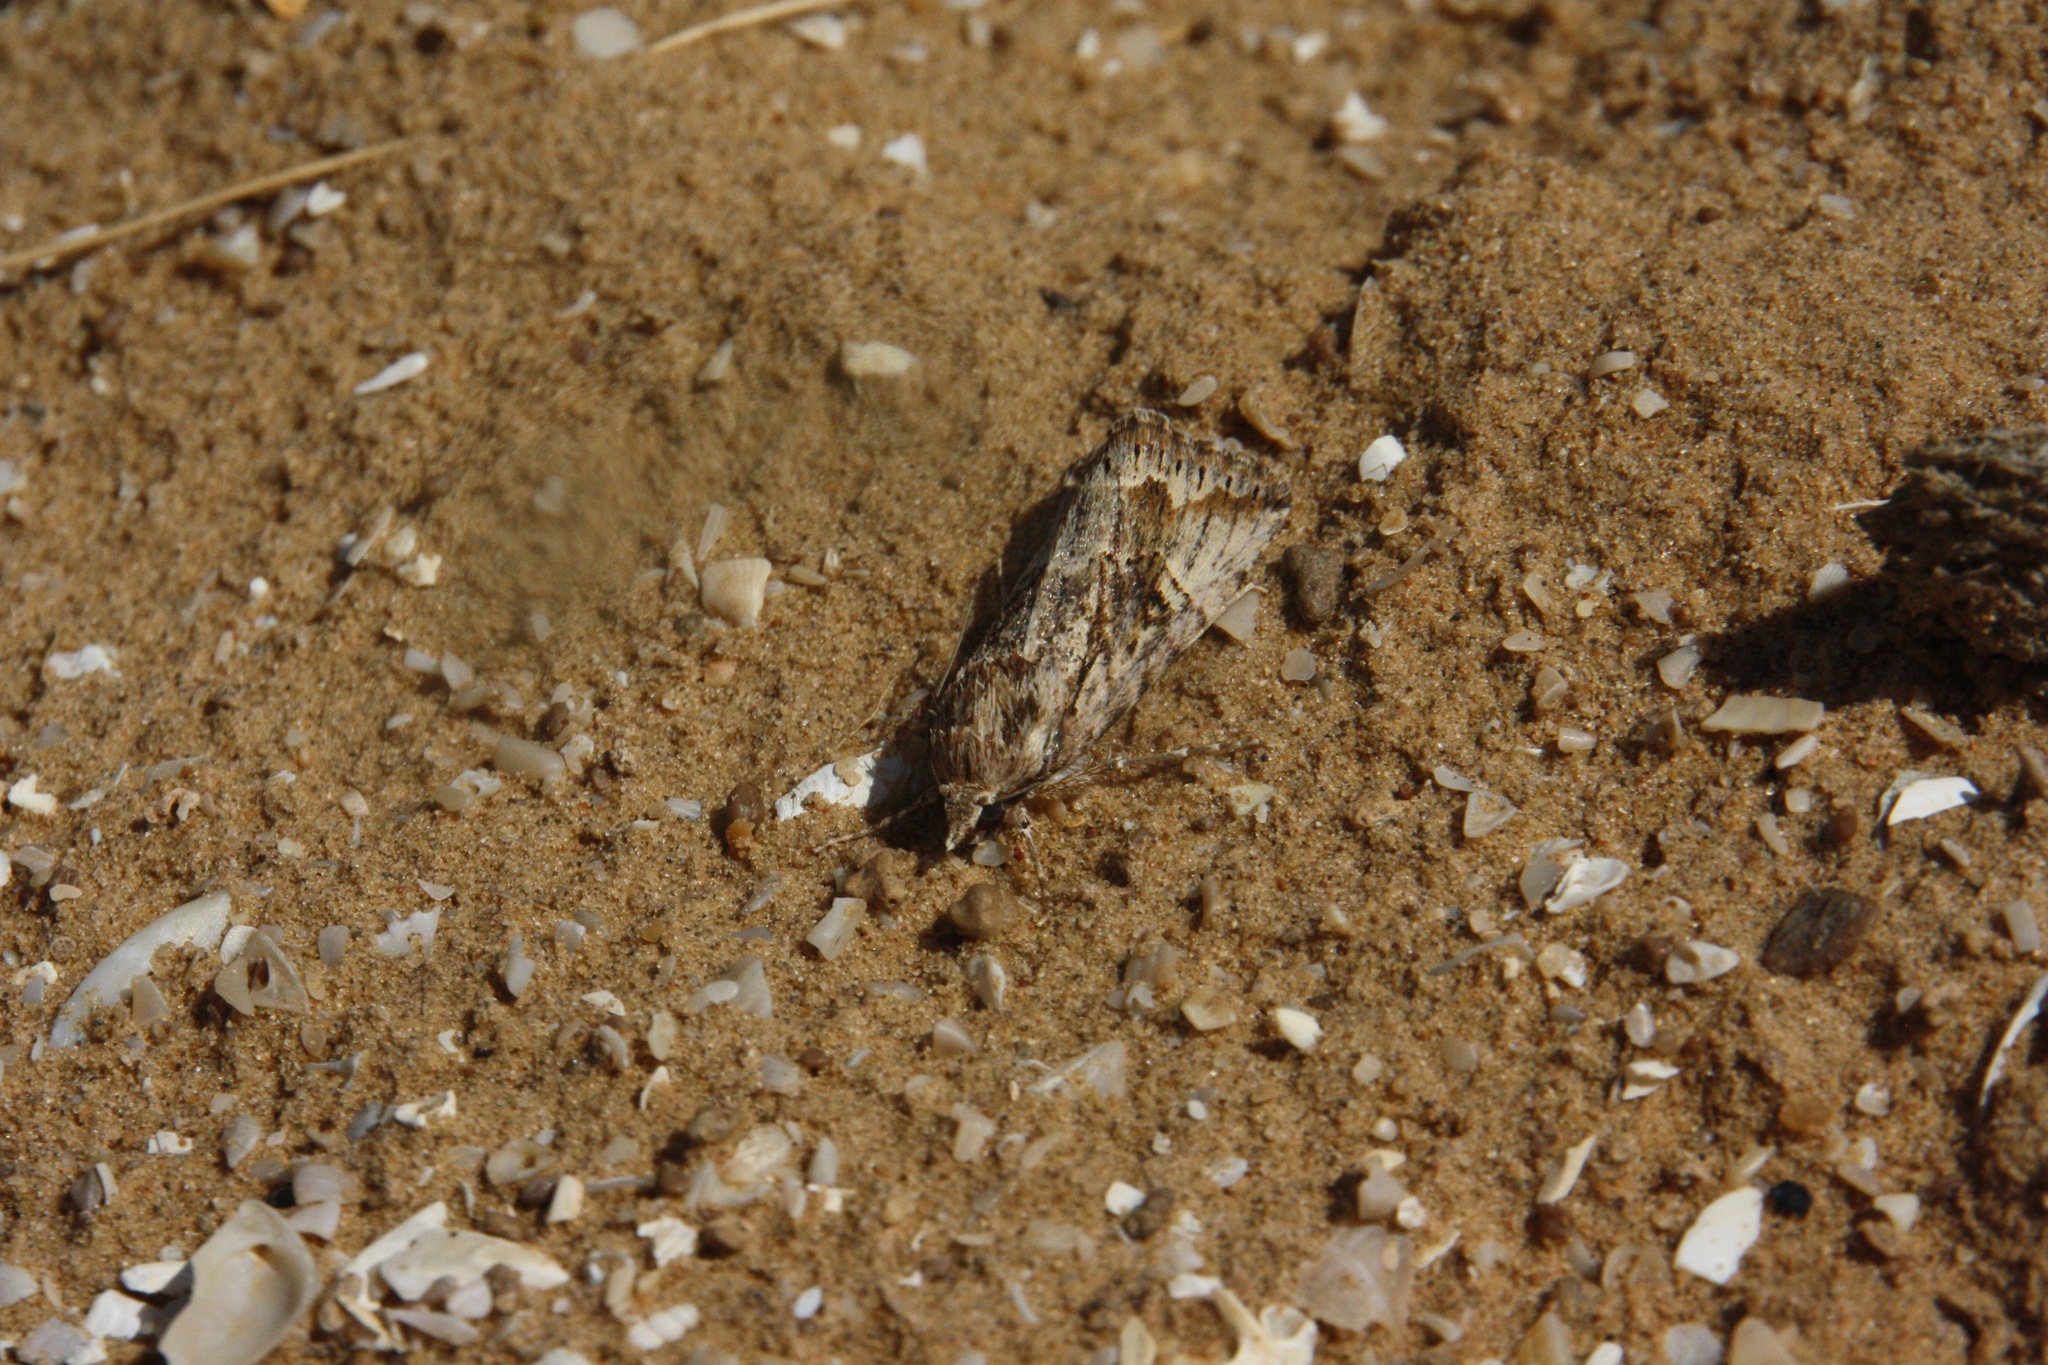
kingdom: Animalia
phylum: Arthropoda
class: Insecta
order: Lepidoptera
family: Erebidae
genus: Anumeta
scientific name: Anumeta cestis
